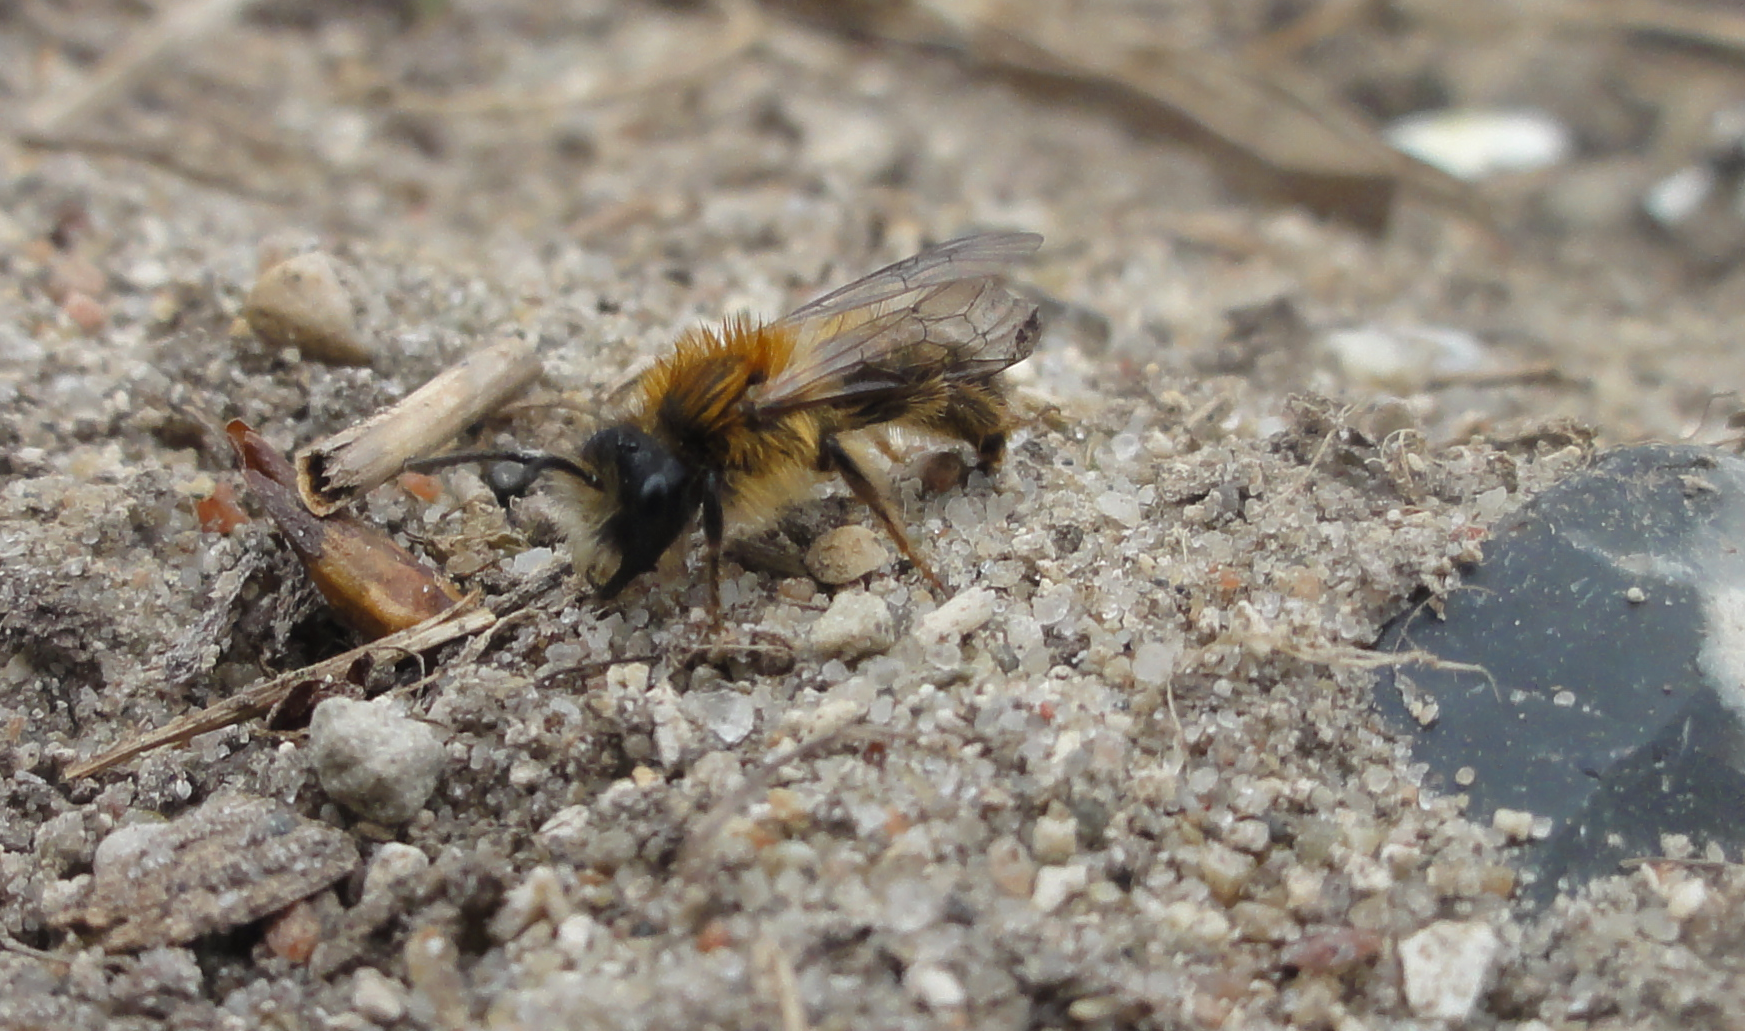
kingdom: Animalia
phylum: Arthropoda
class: Insecta
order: Hymenoptera
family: Andrenidae
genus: Andrena
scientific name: Andrena fulva
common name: Tawny mining bee
